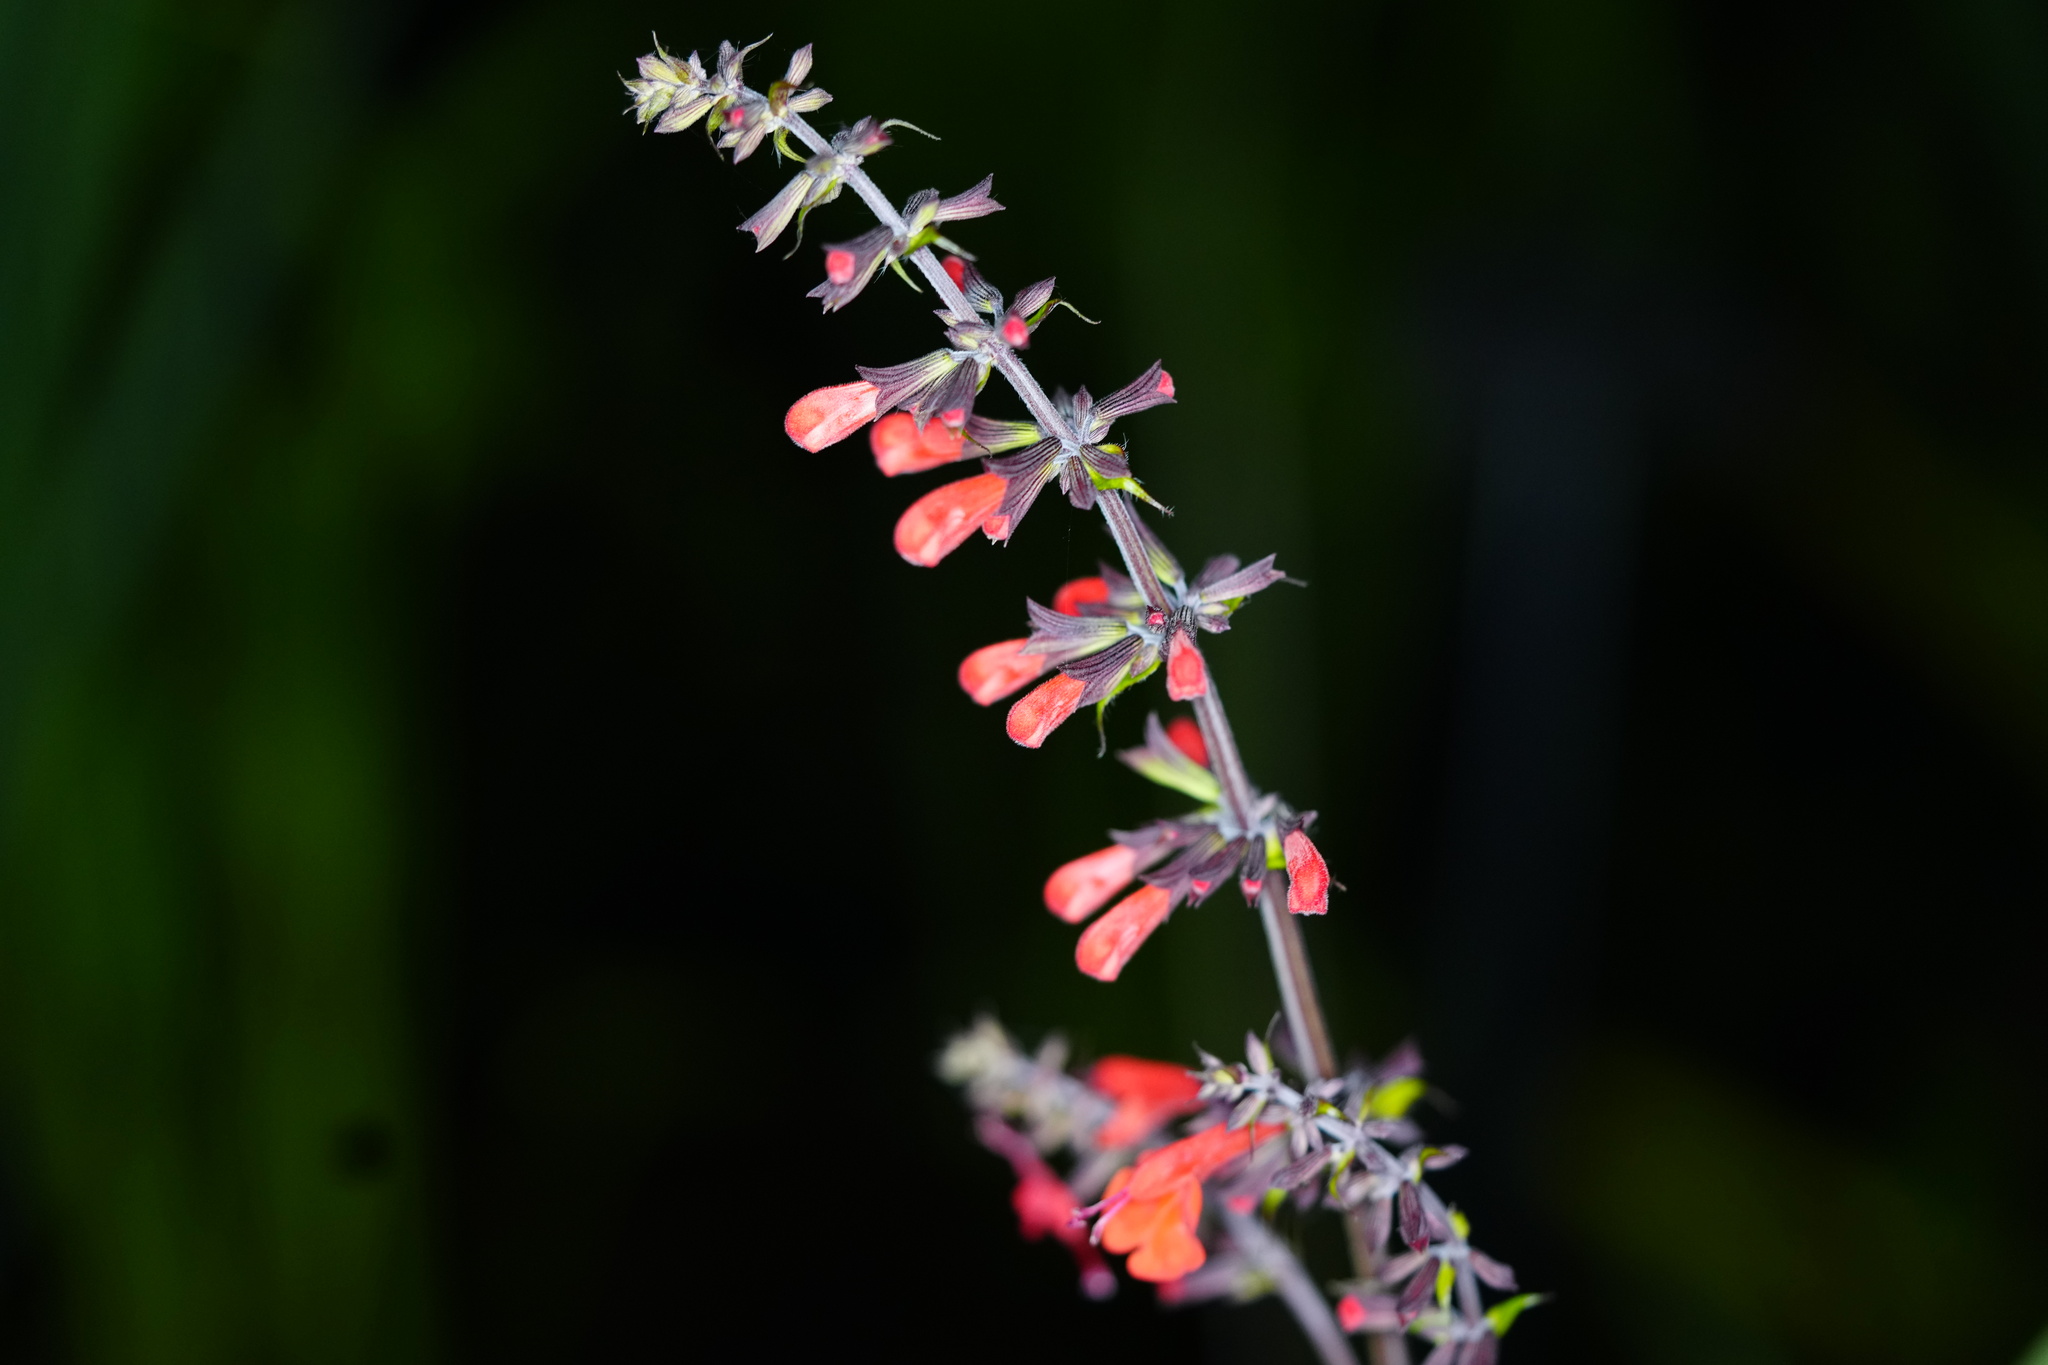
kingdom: Plantae
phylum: Tracheophyta
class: Magnoliopsida
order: Lamiales
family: Lamiaceae
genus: Salvia
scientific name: Salvia coccinea
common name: Blood sage
